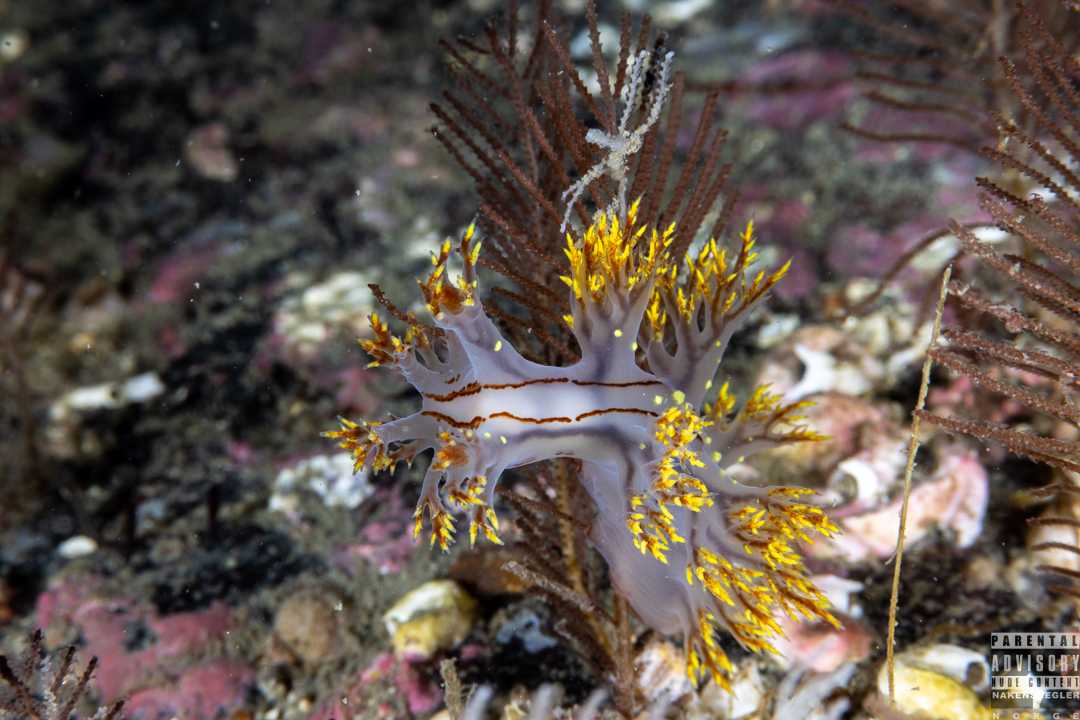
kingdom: Animalia
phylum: Mollusca
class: Gastropoda
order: Nudibranchia
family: Dendronotidae
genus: Dendronotus
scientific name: Dendronotus yrjargul
